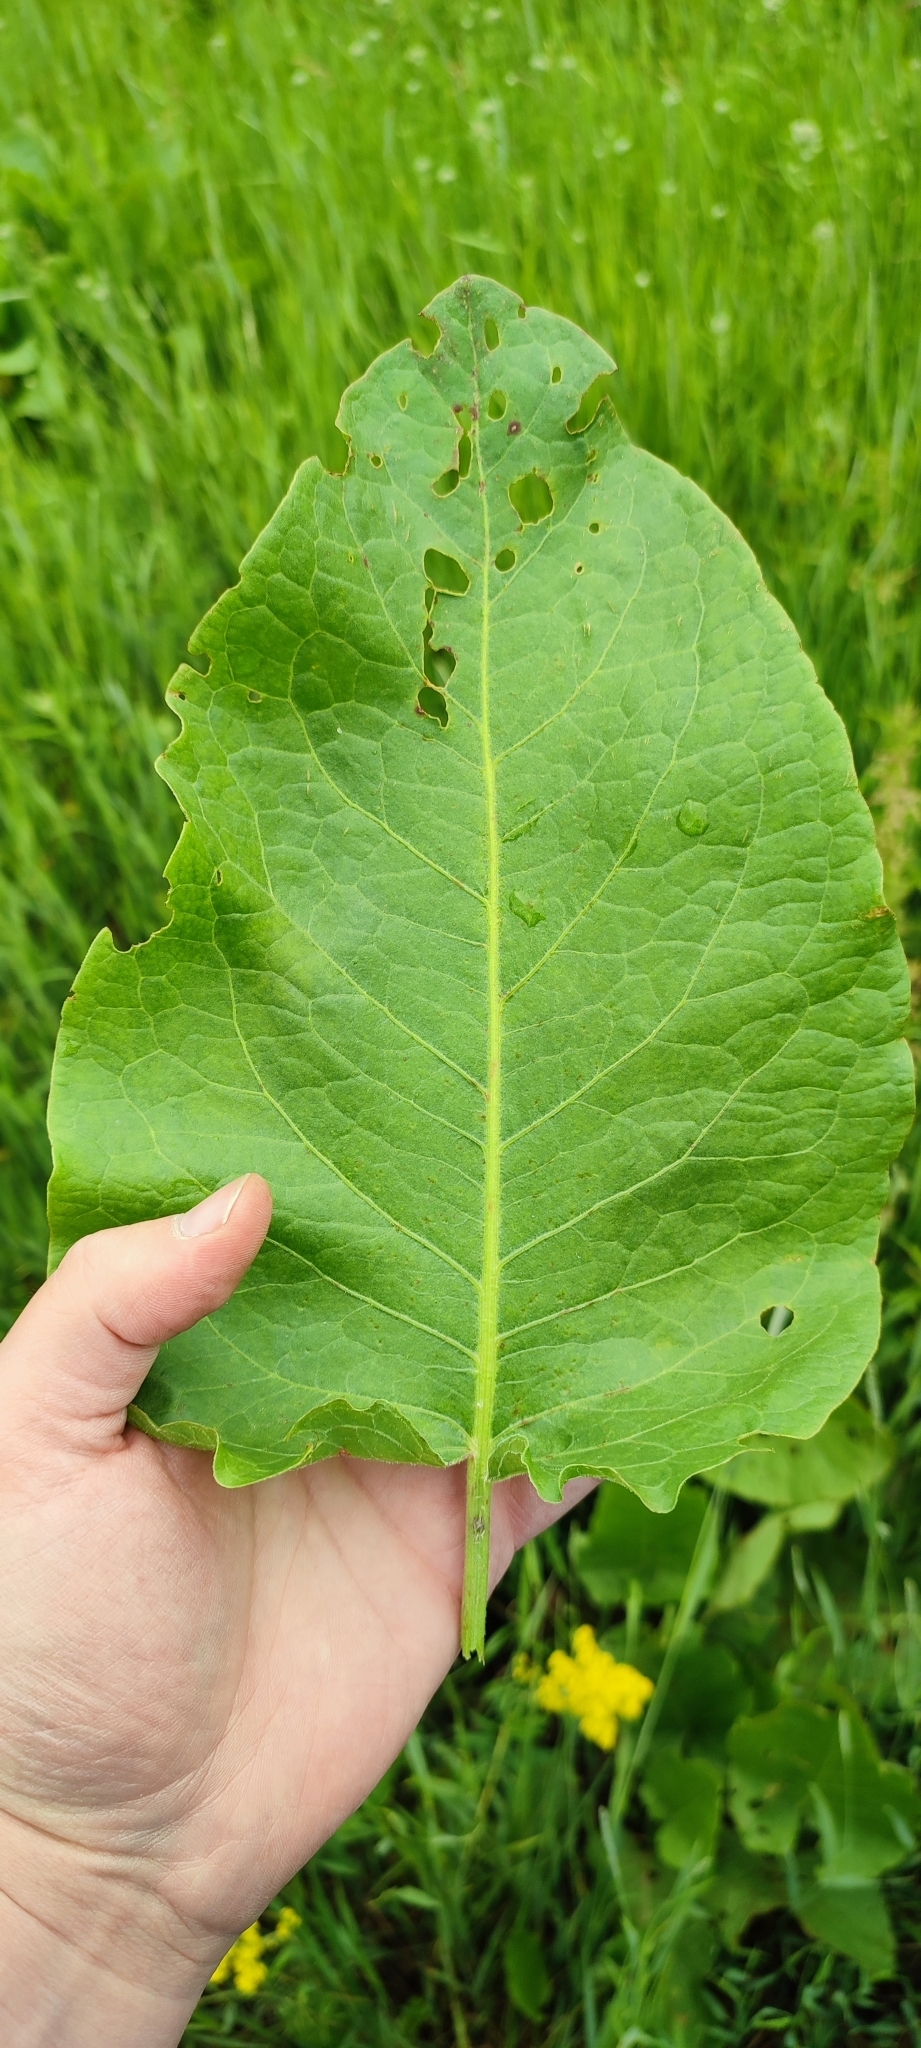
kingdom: Plantae
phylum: Tracheophyta
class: Magnoliopsida
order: Caryophyllales
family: Polygonaceae
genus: Rumex
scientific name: Rumex confertus
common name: Russian dock
